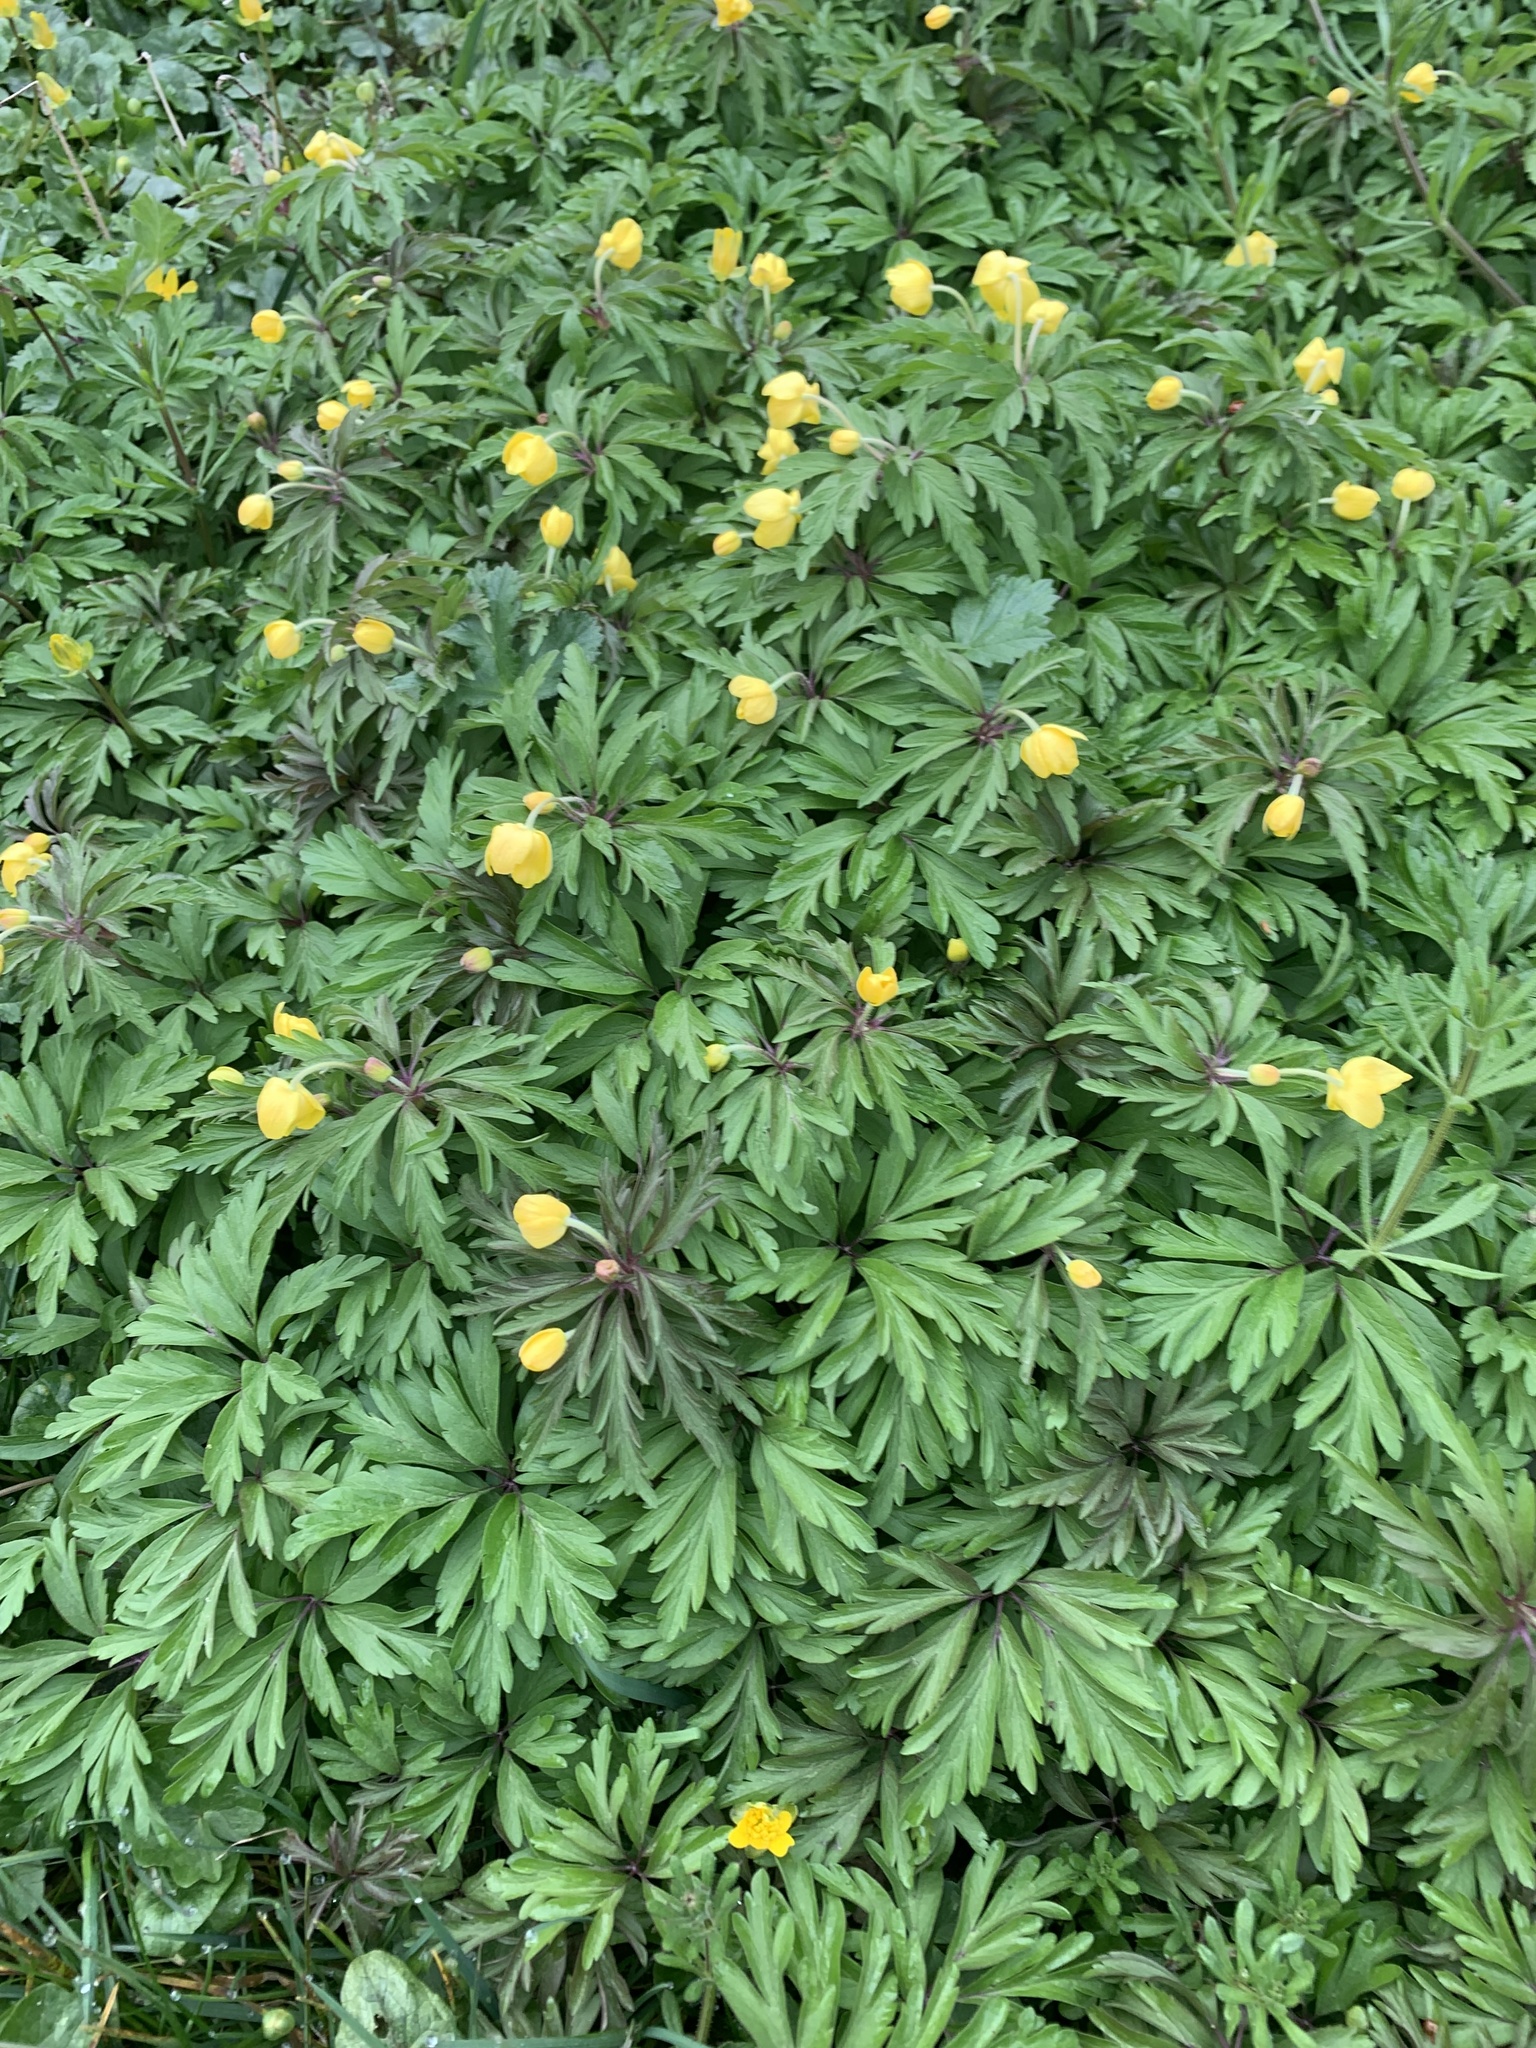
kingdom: Plantae
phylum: Tracheophyta
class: Magnoliopsida
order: Ranunculales
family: Ranunculaceae
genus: Anemone
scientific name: Anemone ranunculoides
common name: Yellow anemone
